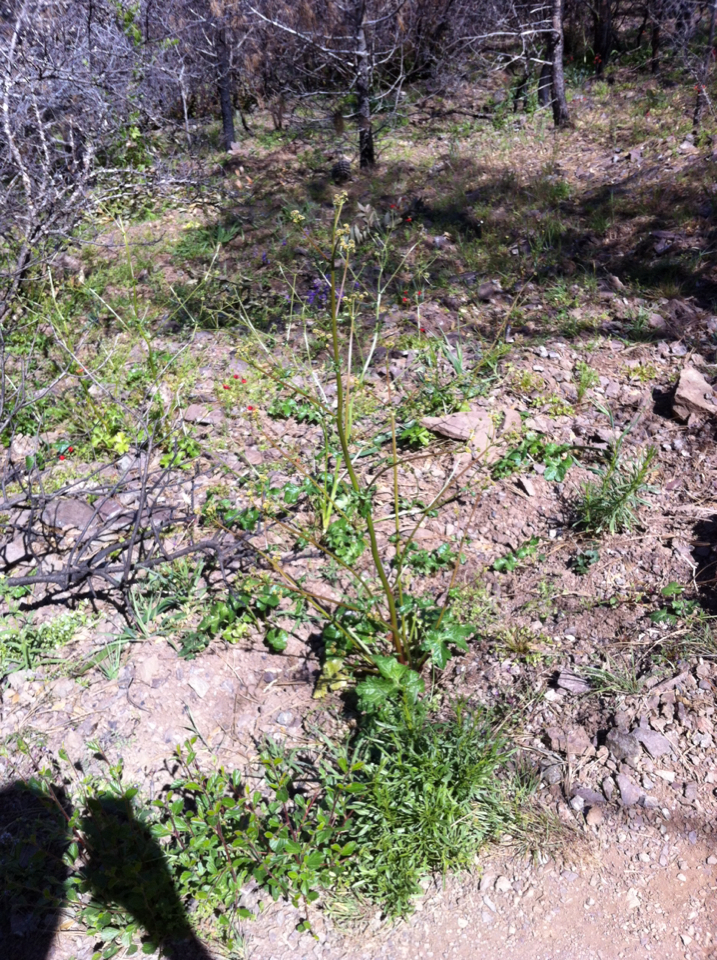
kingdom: Plantae
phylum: Tracheophyta
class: Magnoliopsida
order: Apiales
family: Apiaceae
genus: Sanicula
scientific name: Sanicula crassicaulis
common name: Western snakeroot
